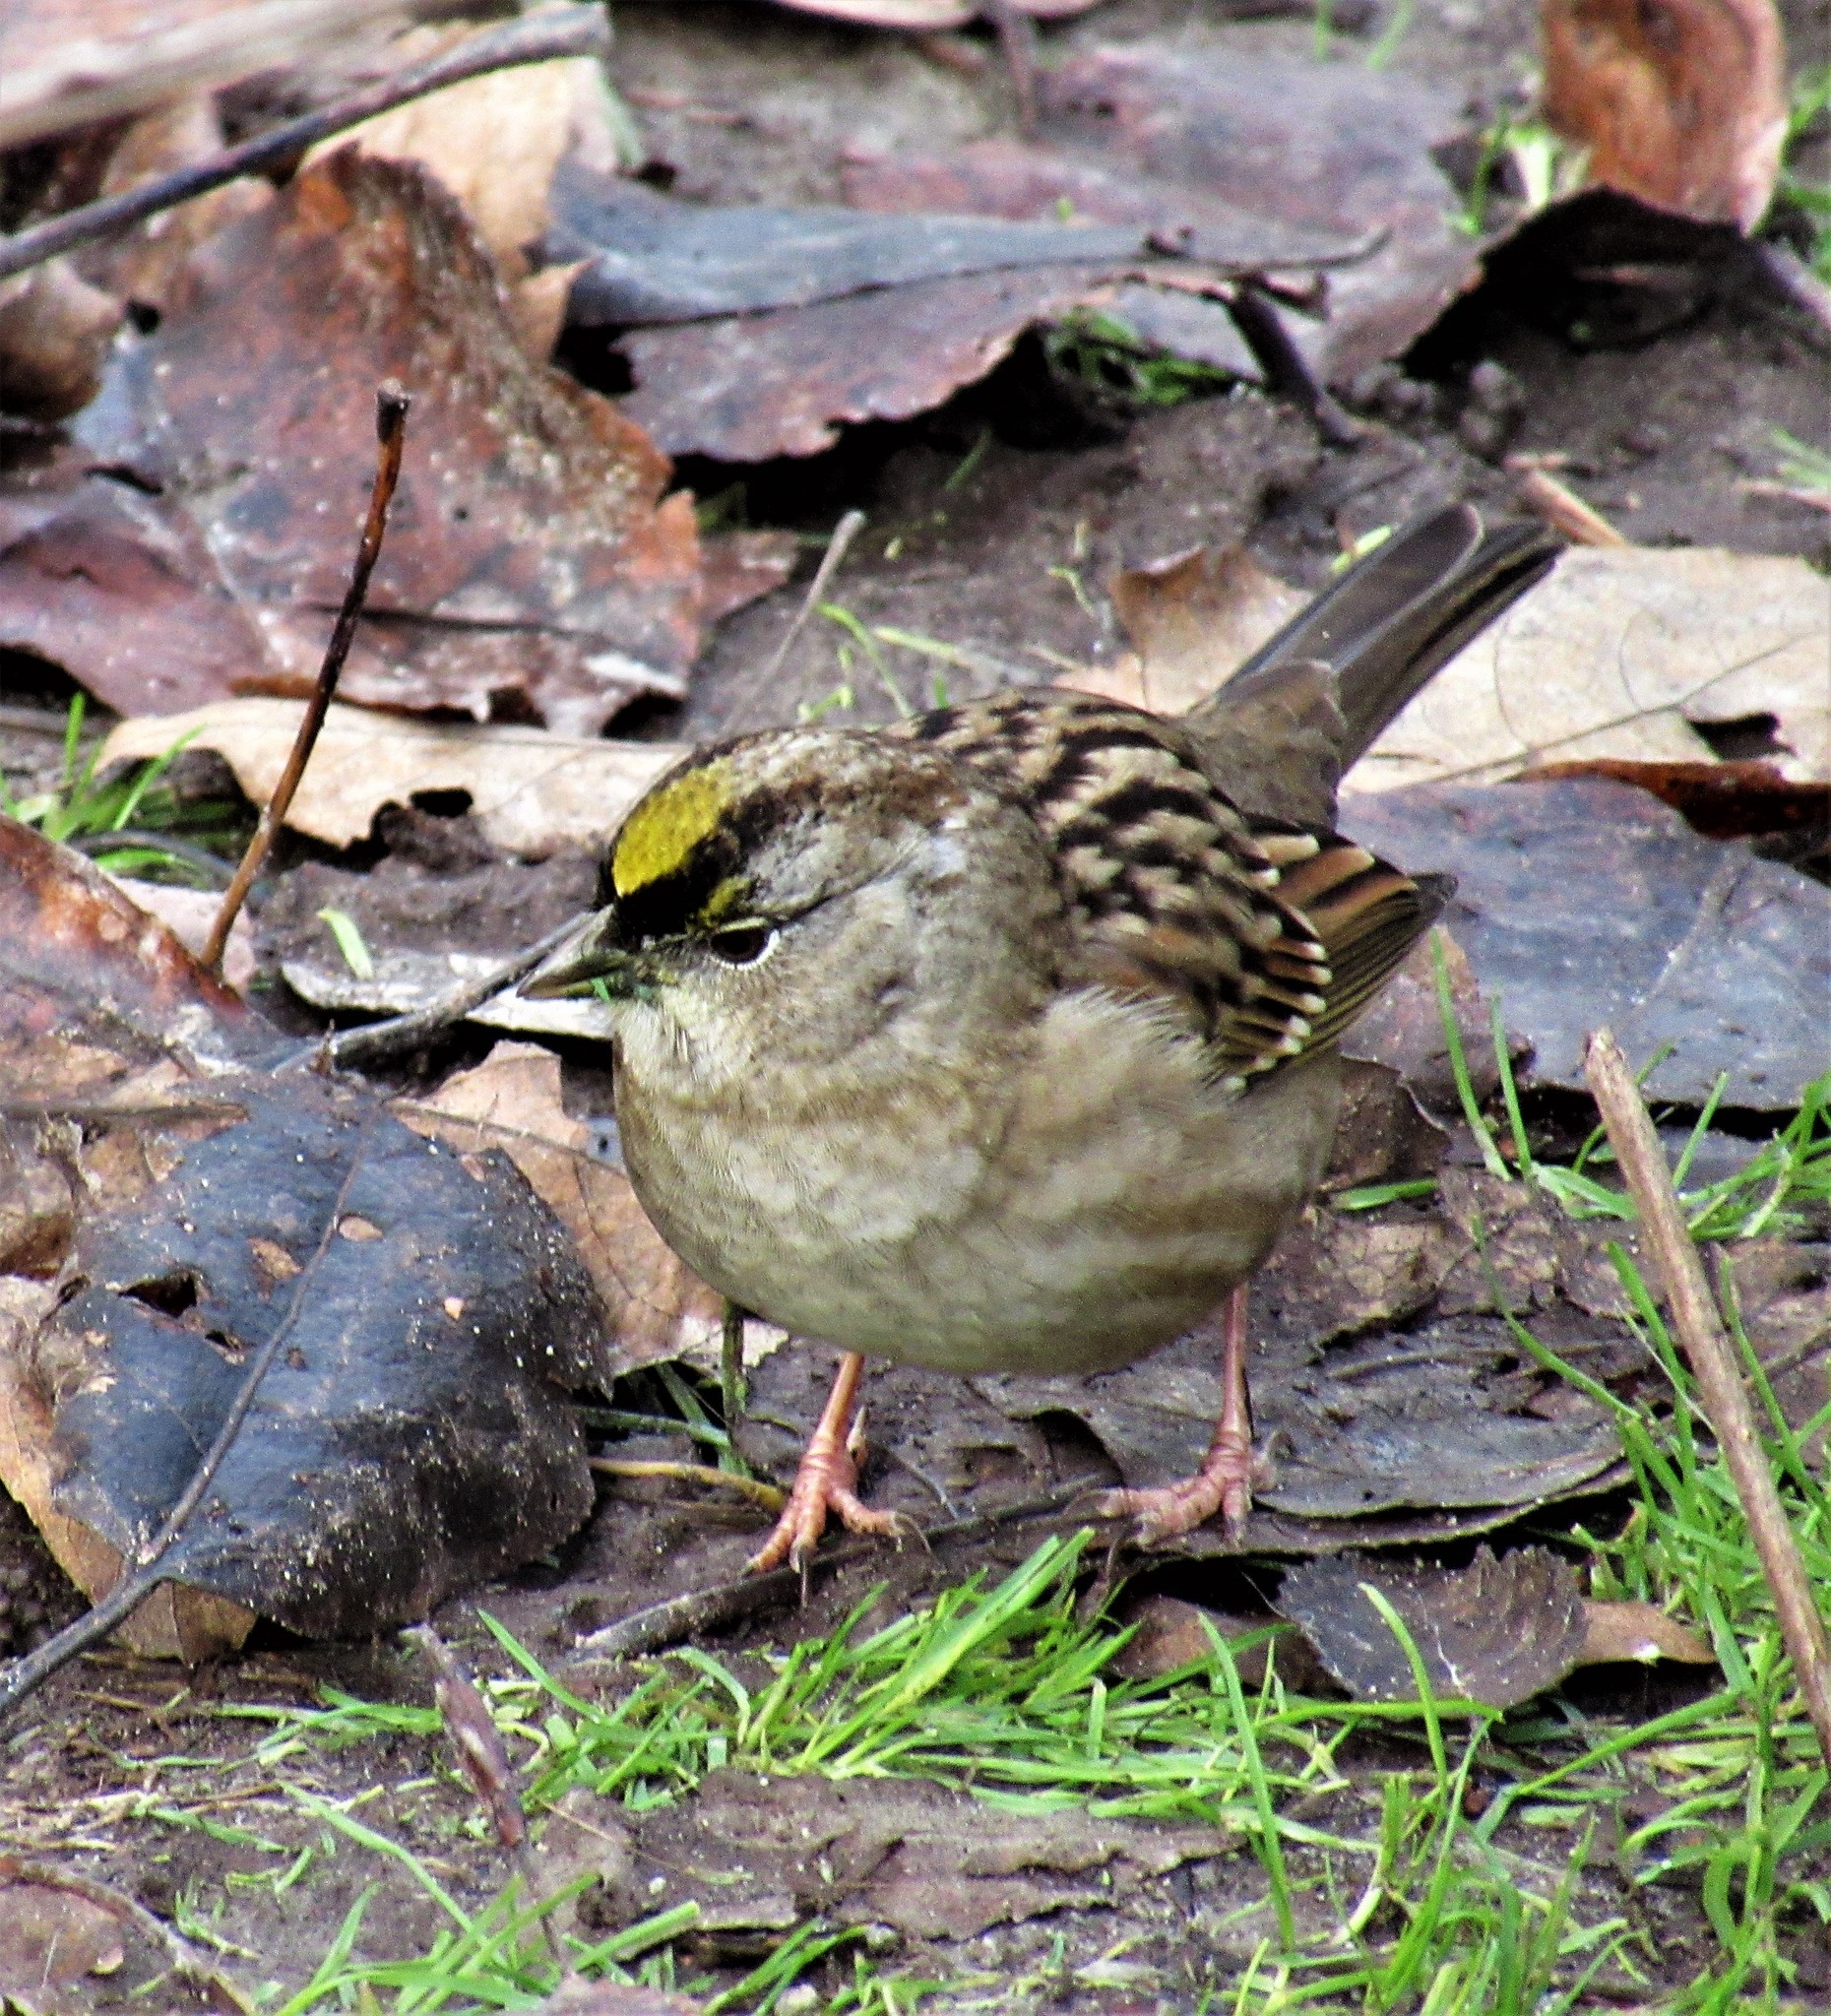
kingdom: Animalia
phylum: Chordata
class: Aves
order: Passeriformes
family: Passerellidae
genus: Zonotrichia
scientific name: Zonotrichia atricapilla
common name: Golden-crowned sparrow
